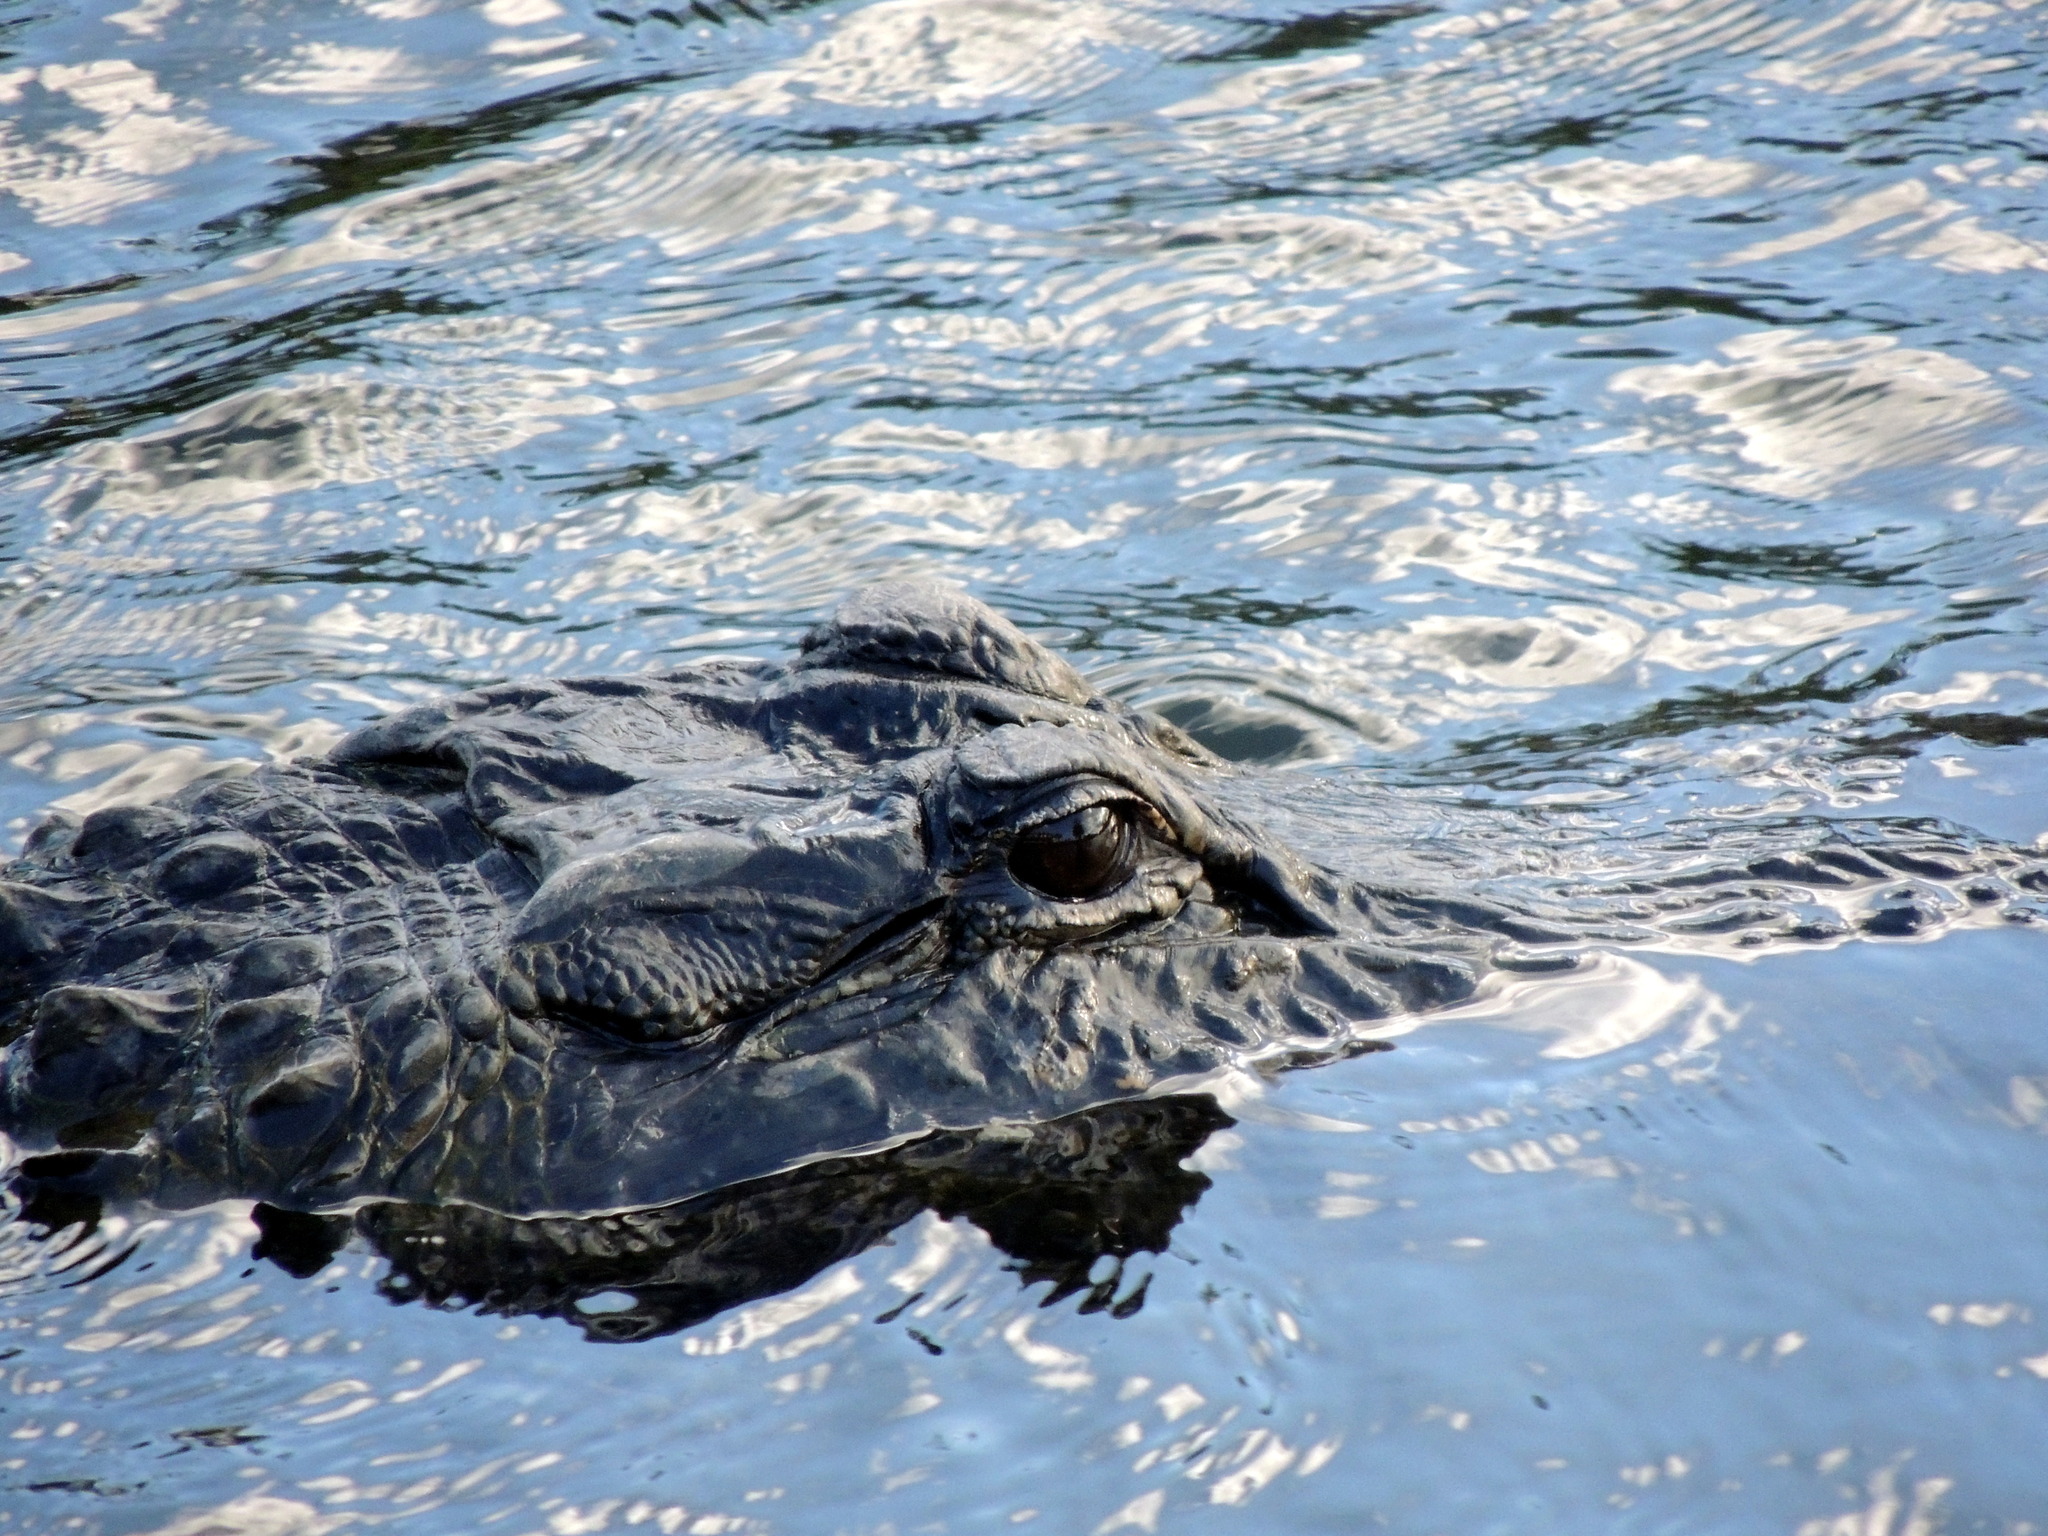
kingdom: Animalia
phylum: Chordata
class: Crocodylia
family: Alligatoridae
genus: Alligator
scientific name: Alligator mississippiensis
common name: American alligator
